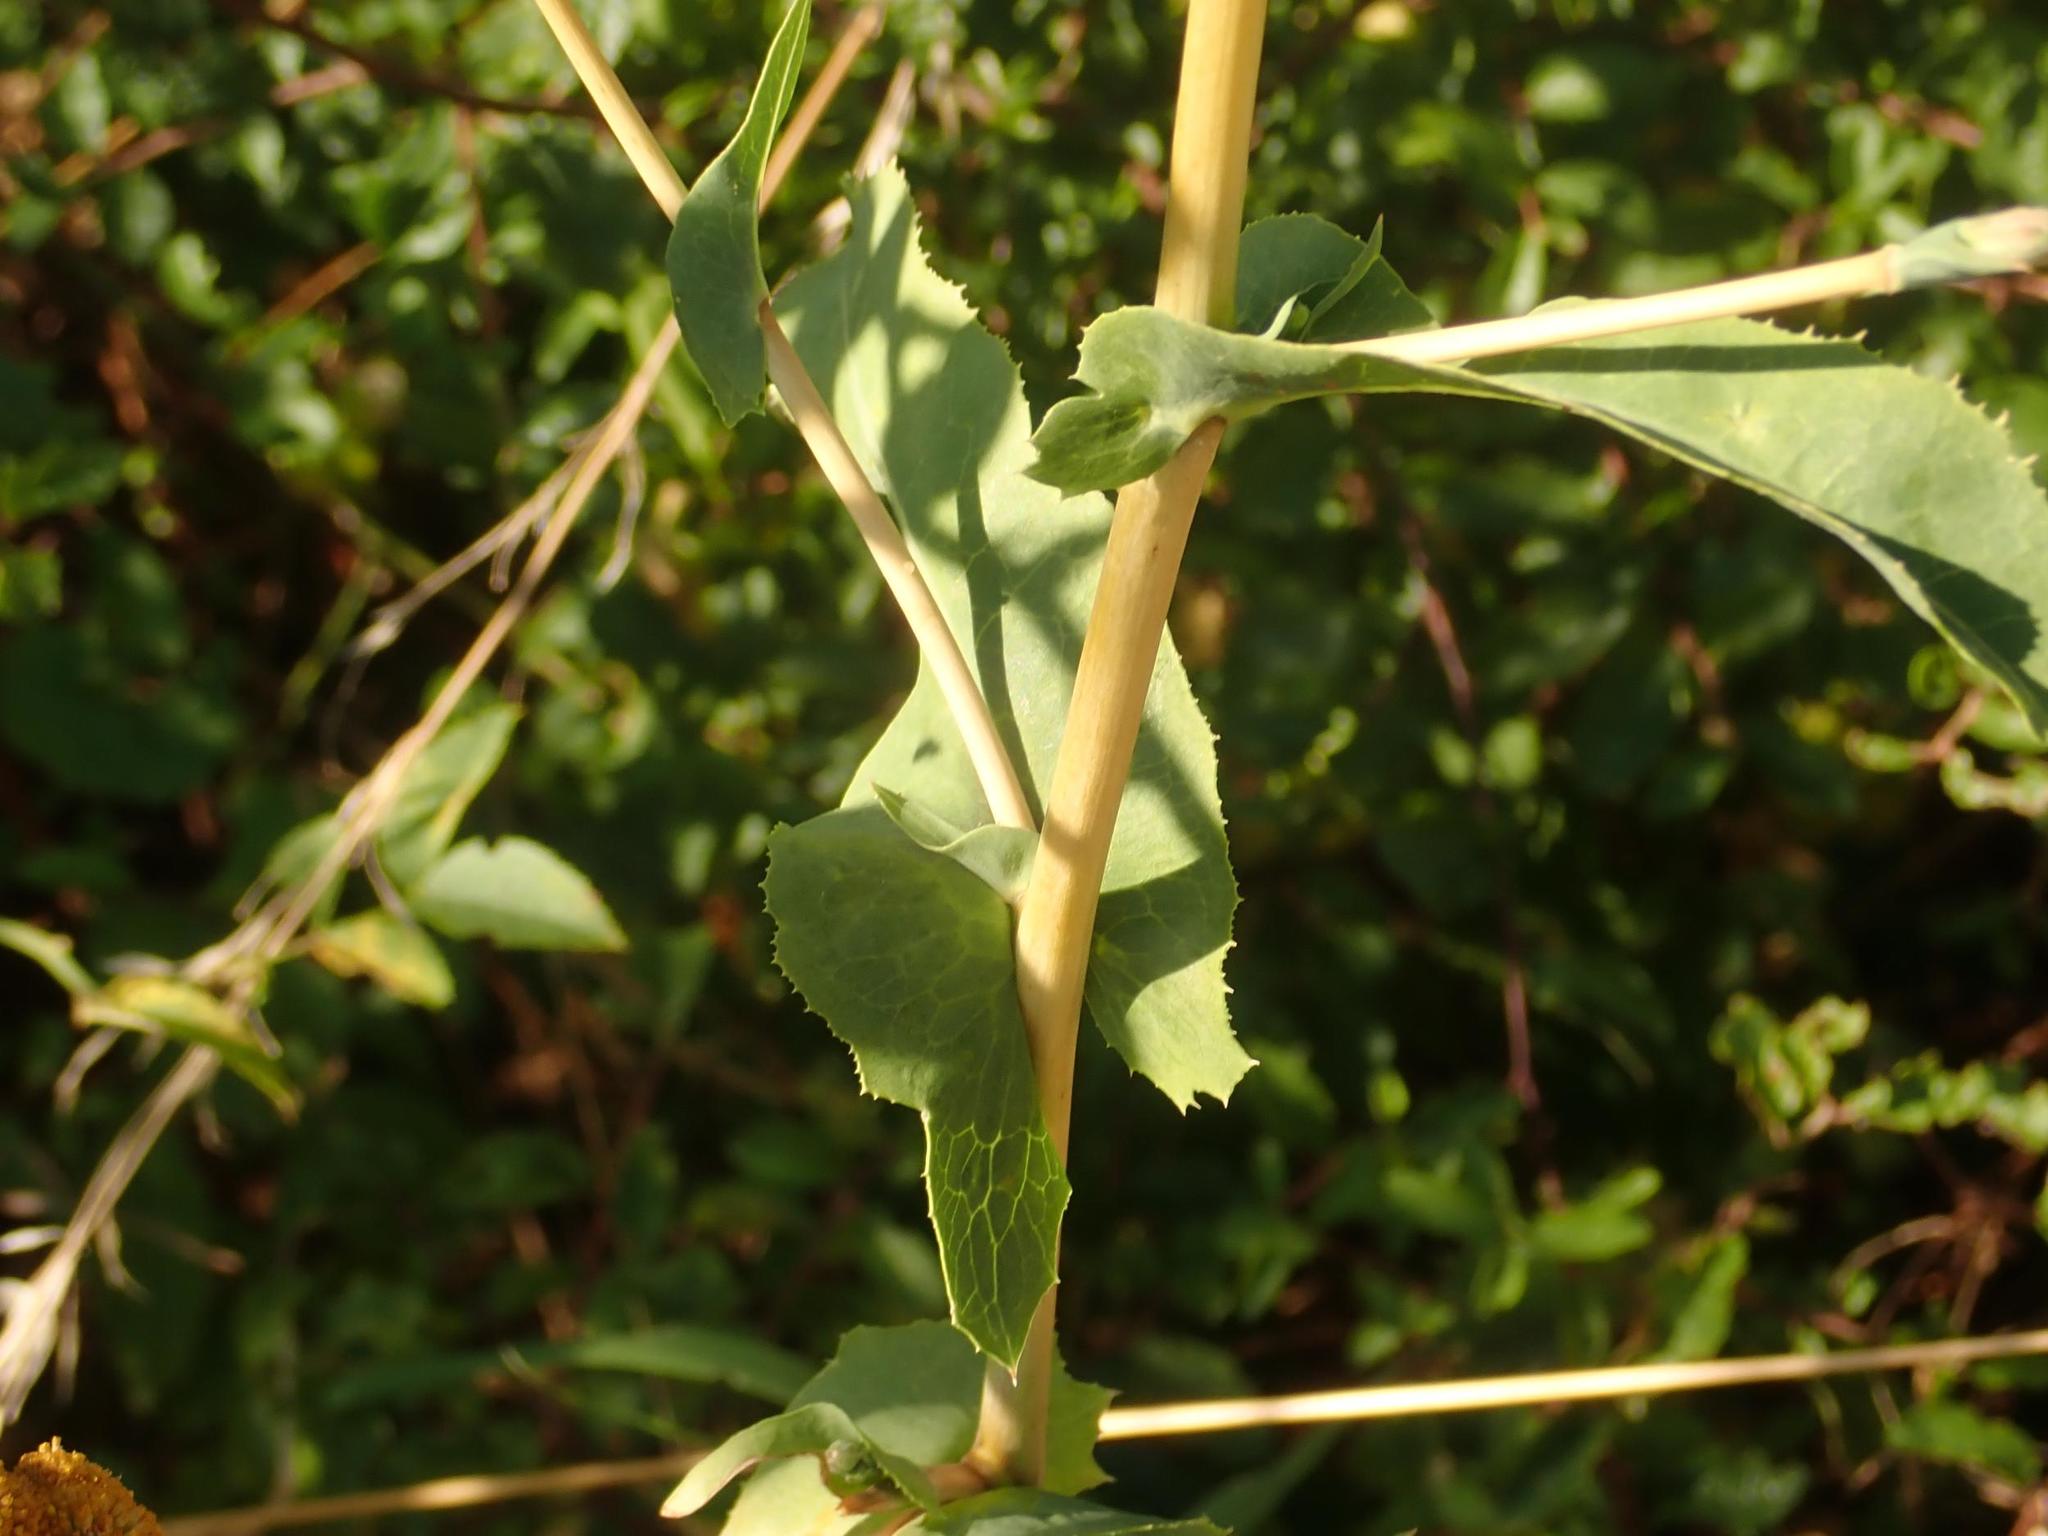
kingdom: Plantae
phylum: Tracheophyta
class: Magnoliopsida
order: Asterales
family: Asteraceae
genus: Lactuca
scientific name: Lactuca serriola
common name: Prickly lettuce
